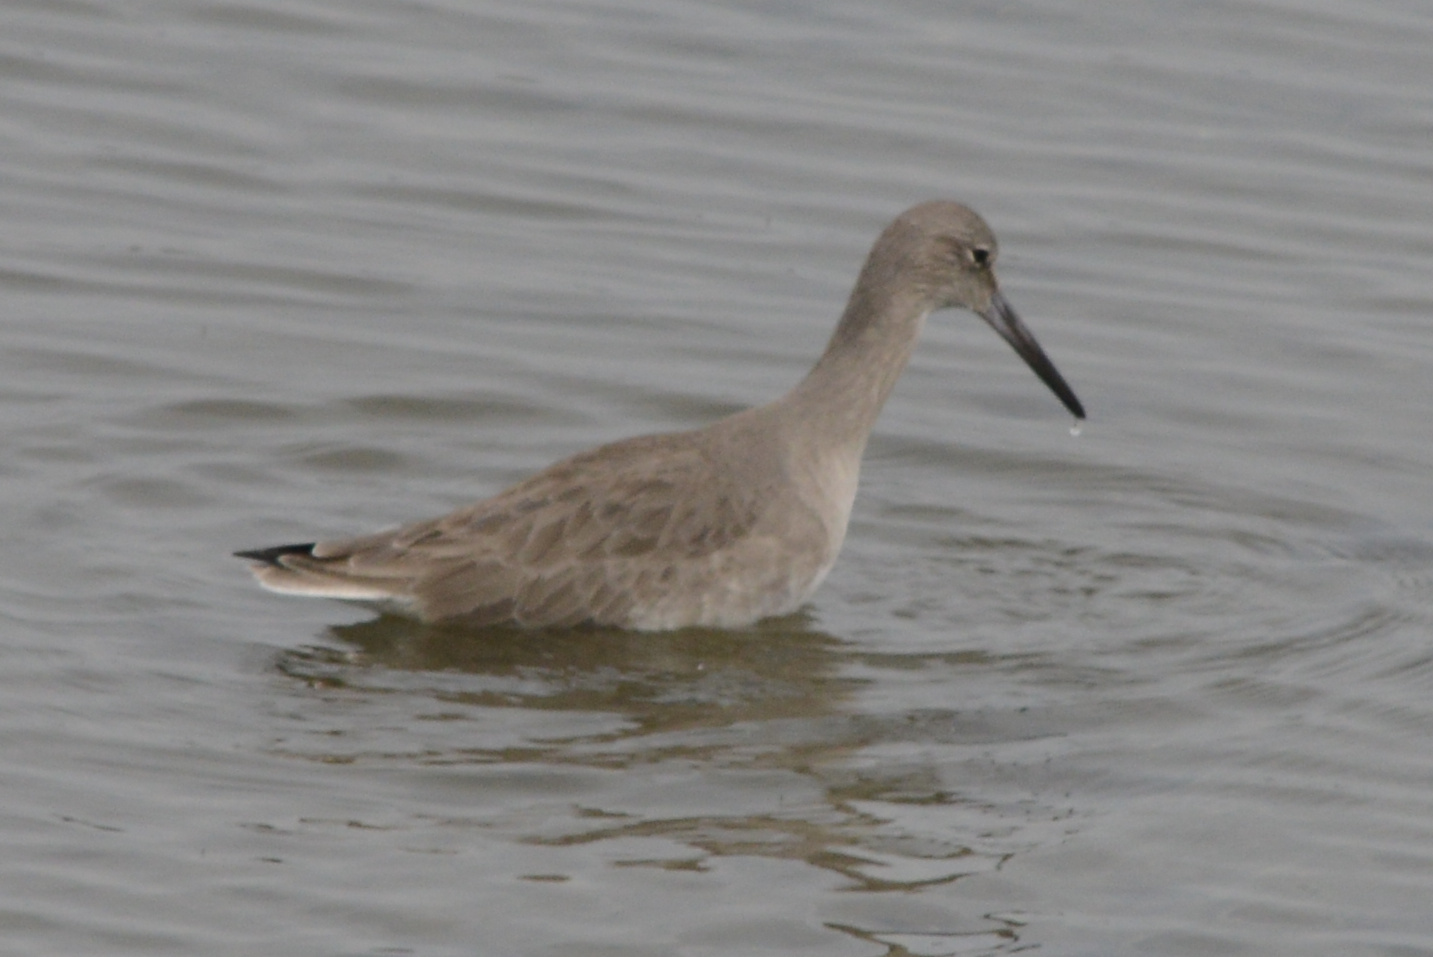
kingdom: Animalia
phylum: Chordata
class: Aves
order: Charadriiformes
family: Scolopacidae
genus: Tringa
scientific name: Tringa semipalmata
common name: Willet
